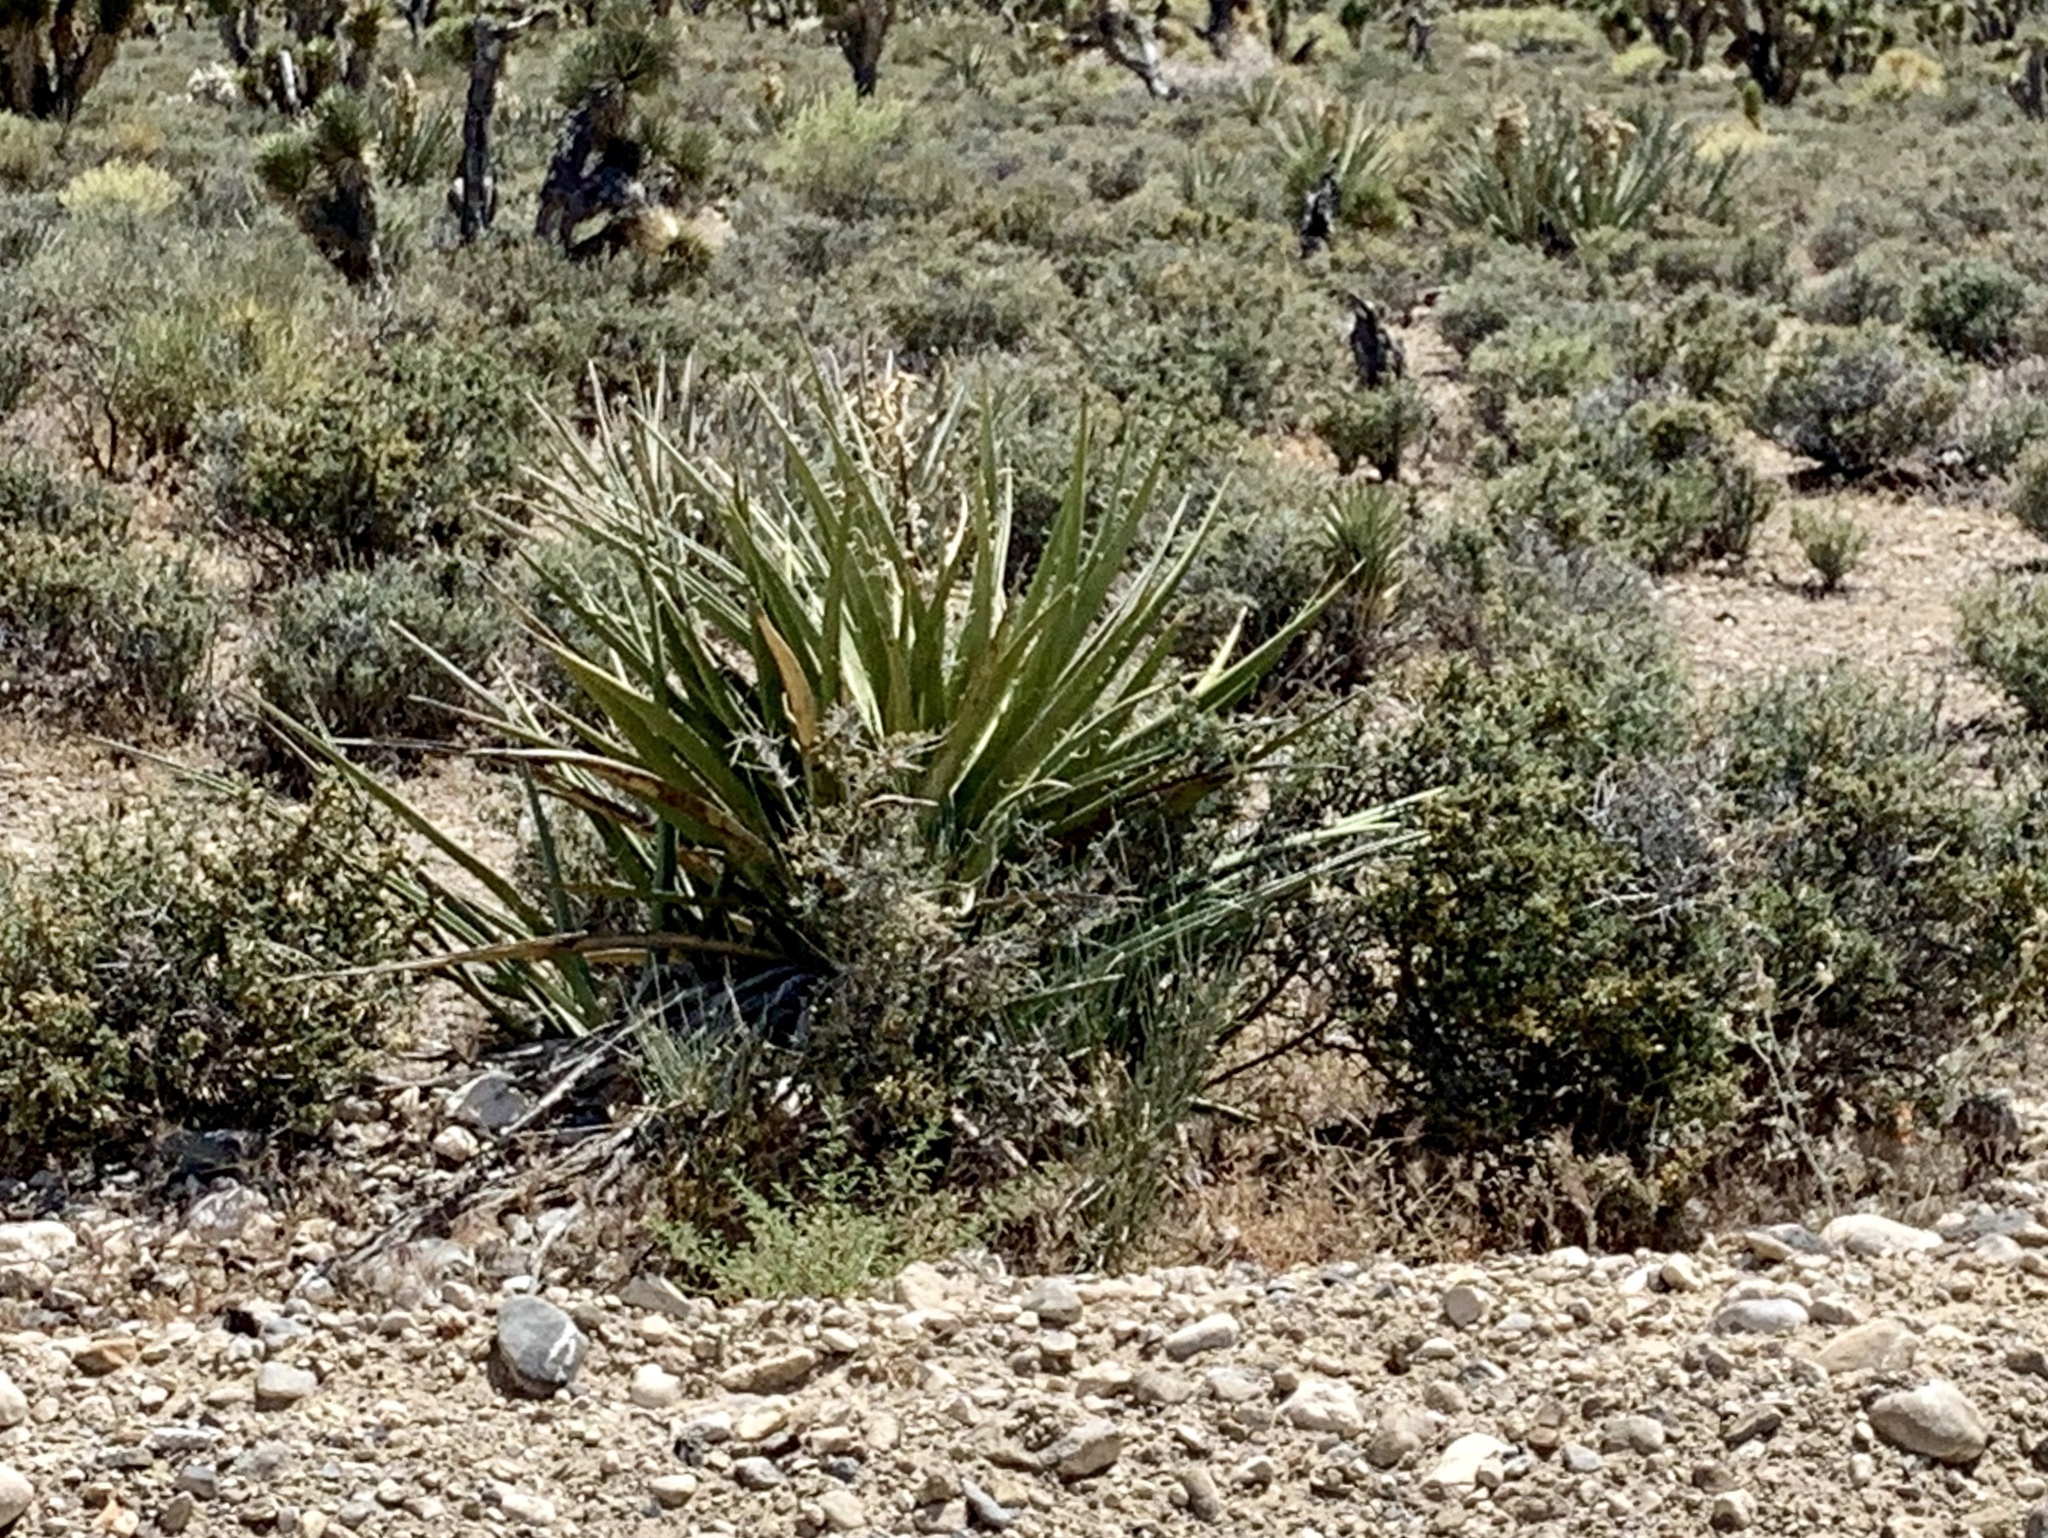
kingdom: Plantae
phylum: Tracheophyta
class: Liliopsida
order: Asparagales
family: Asparagaceae
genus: Yucca
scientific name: Yucca baccata
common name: Banana yucca
